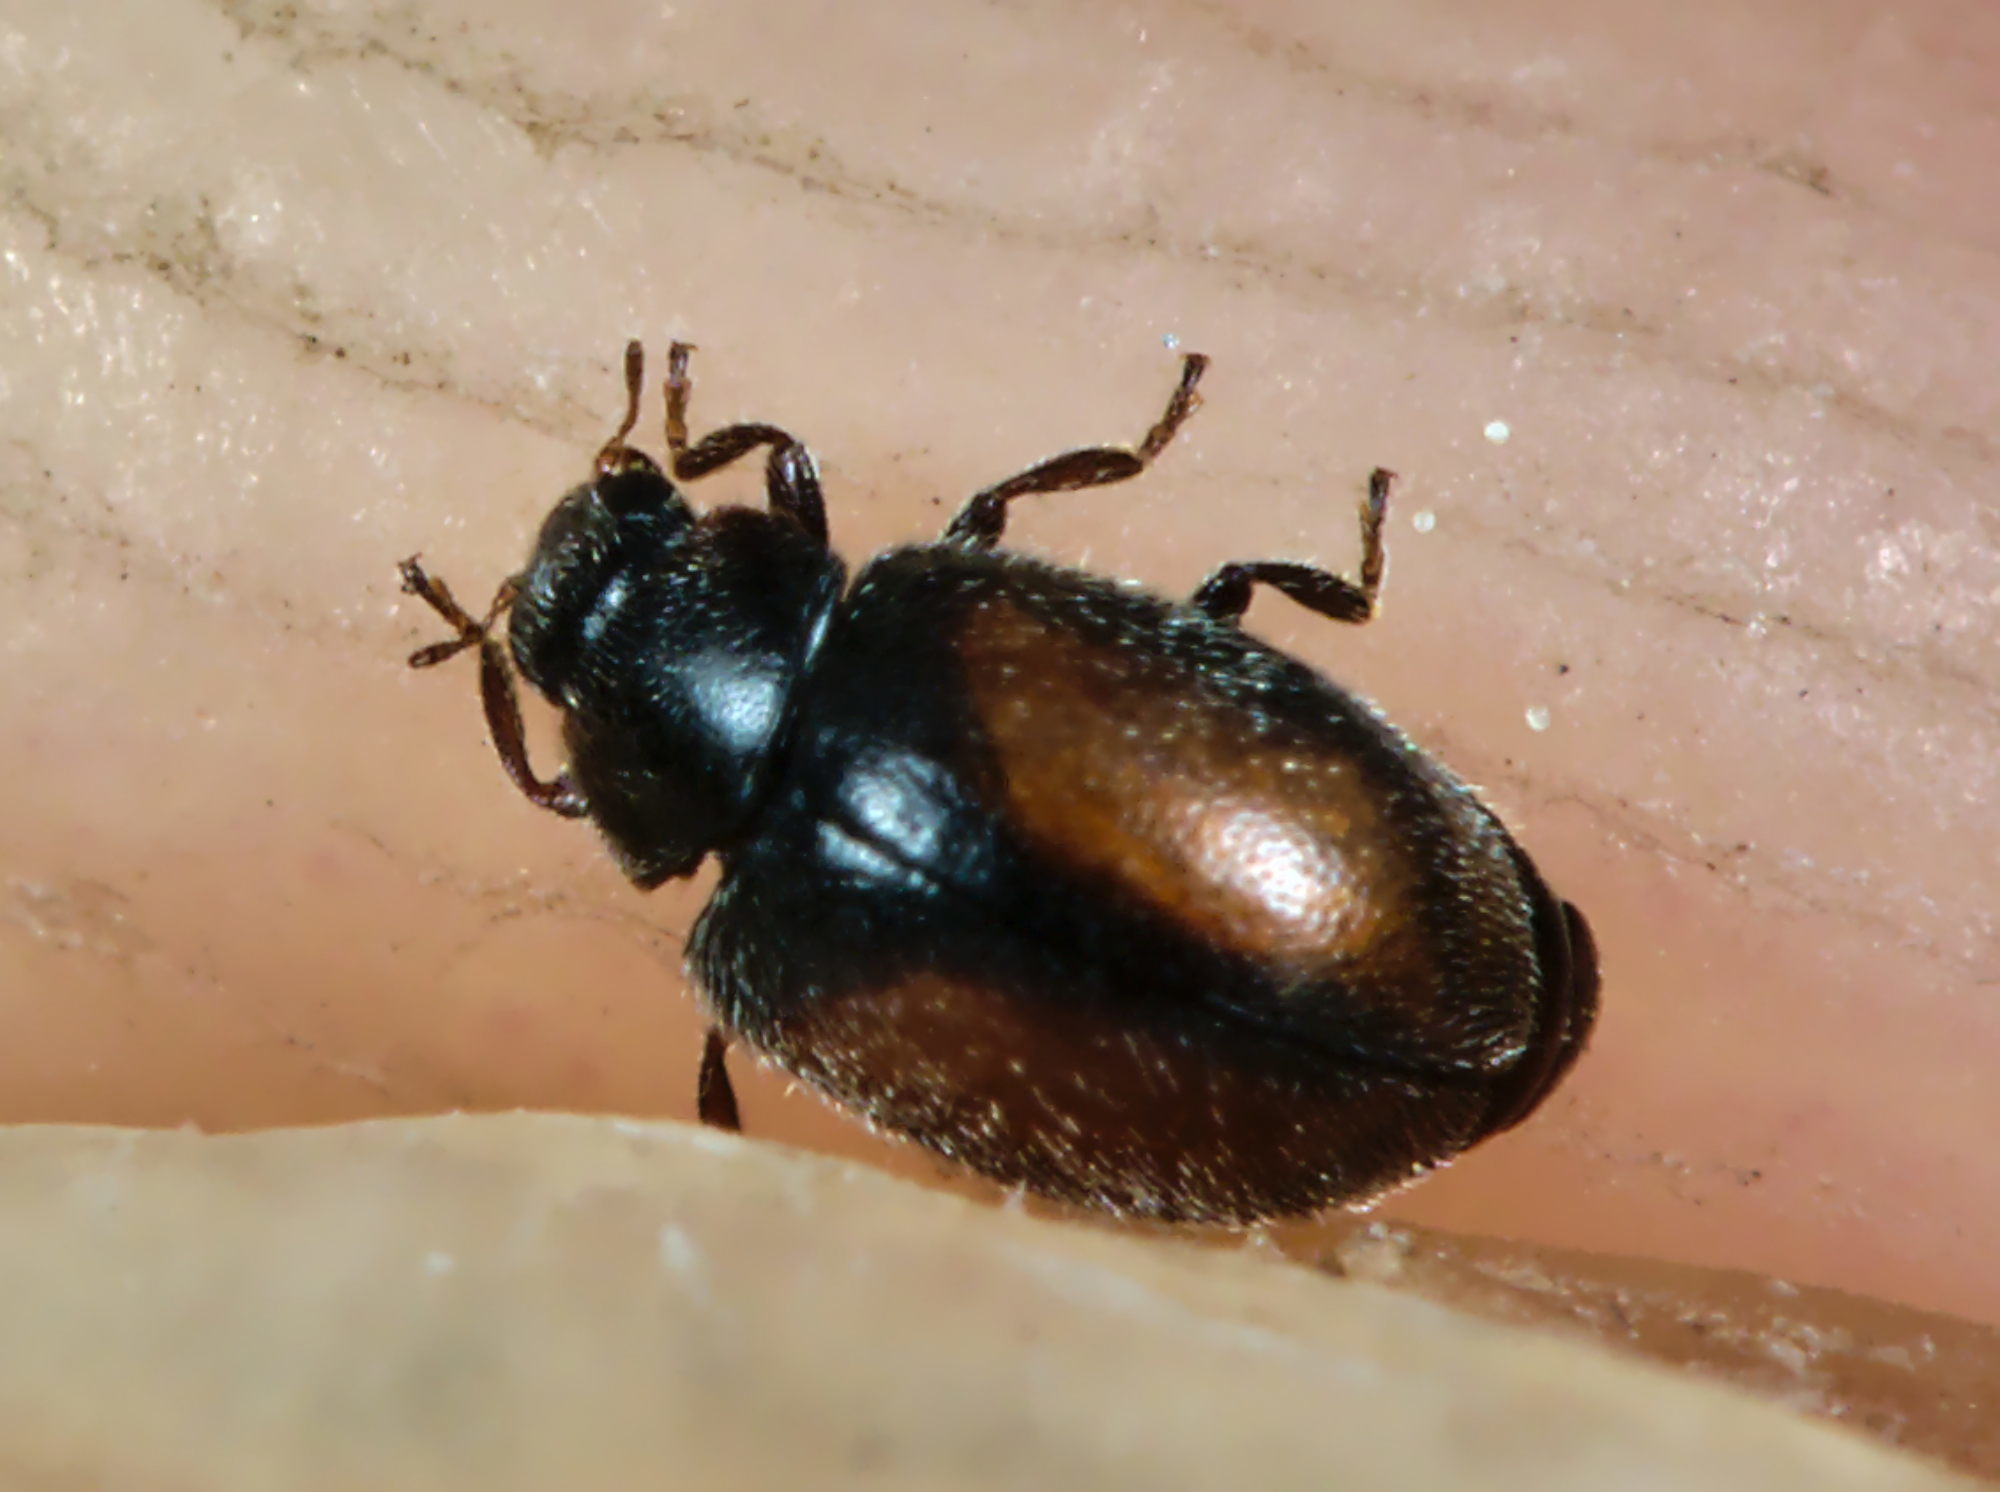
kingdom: Animalia
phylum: Arthropoda
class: Insecta
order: Coleoptera
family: Coccinellidae
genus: Scymnus
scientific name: Scymnus suturalis
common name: Ladybird beetle
